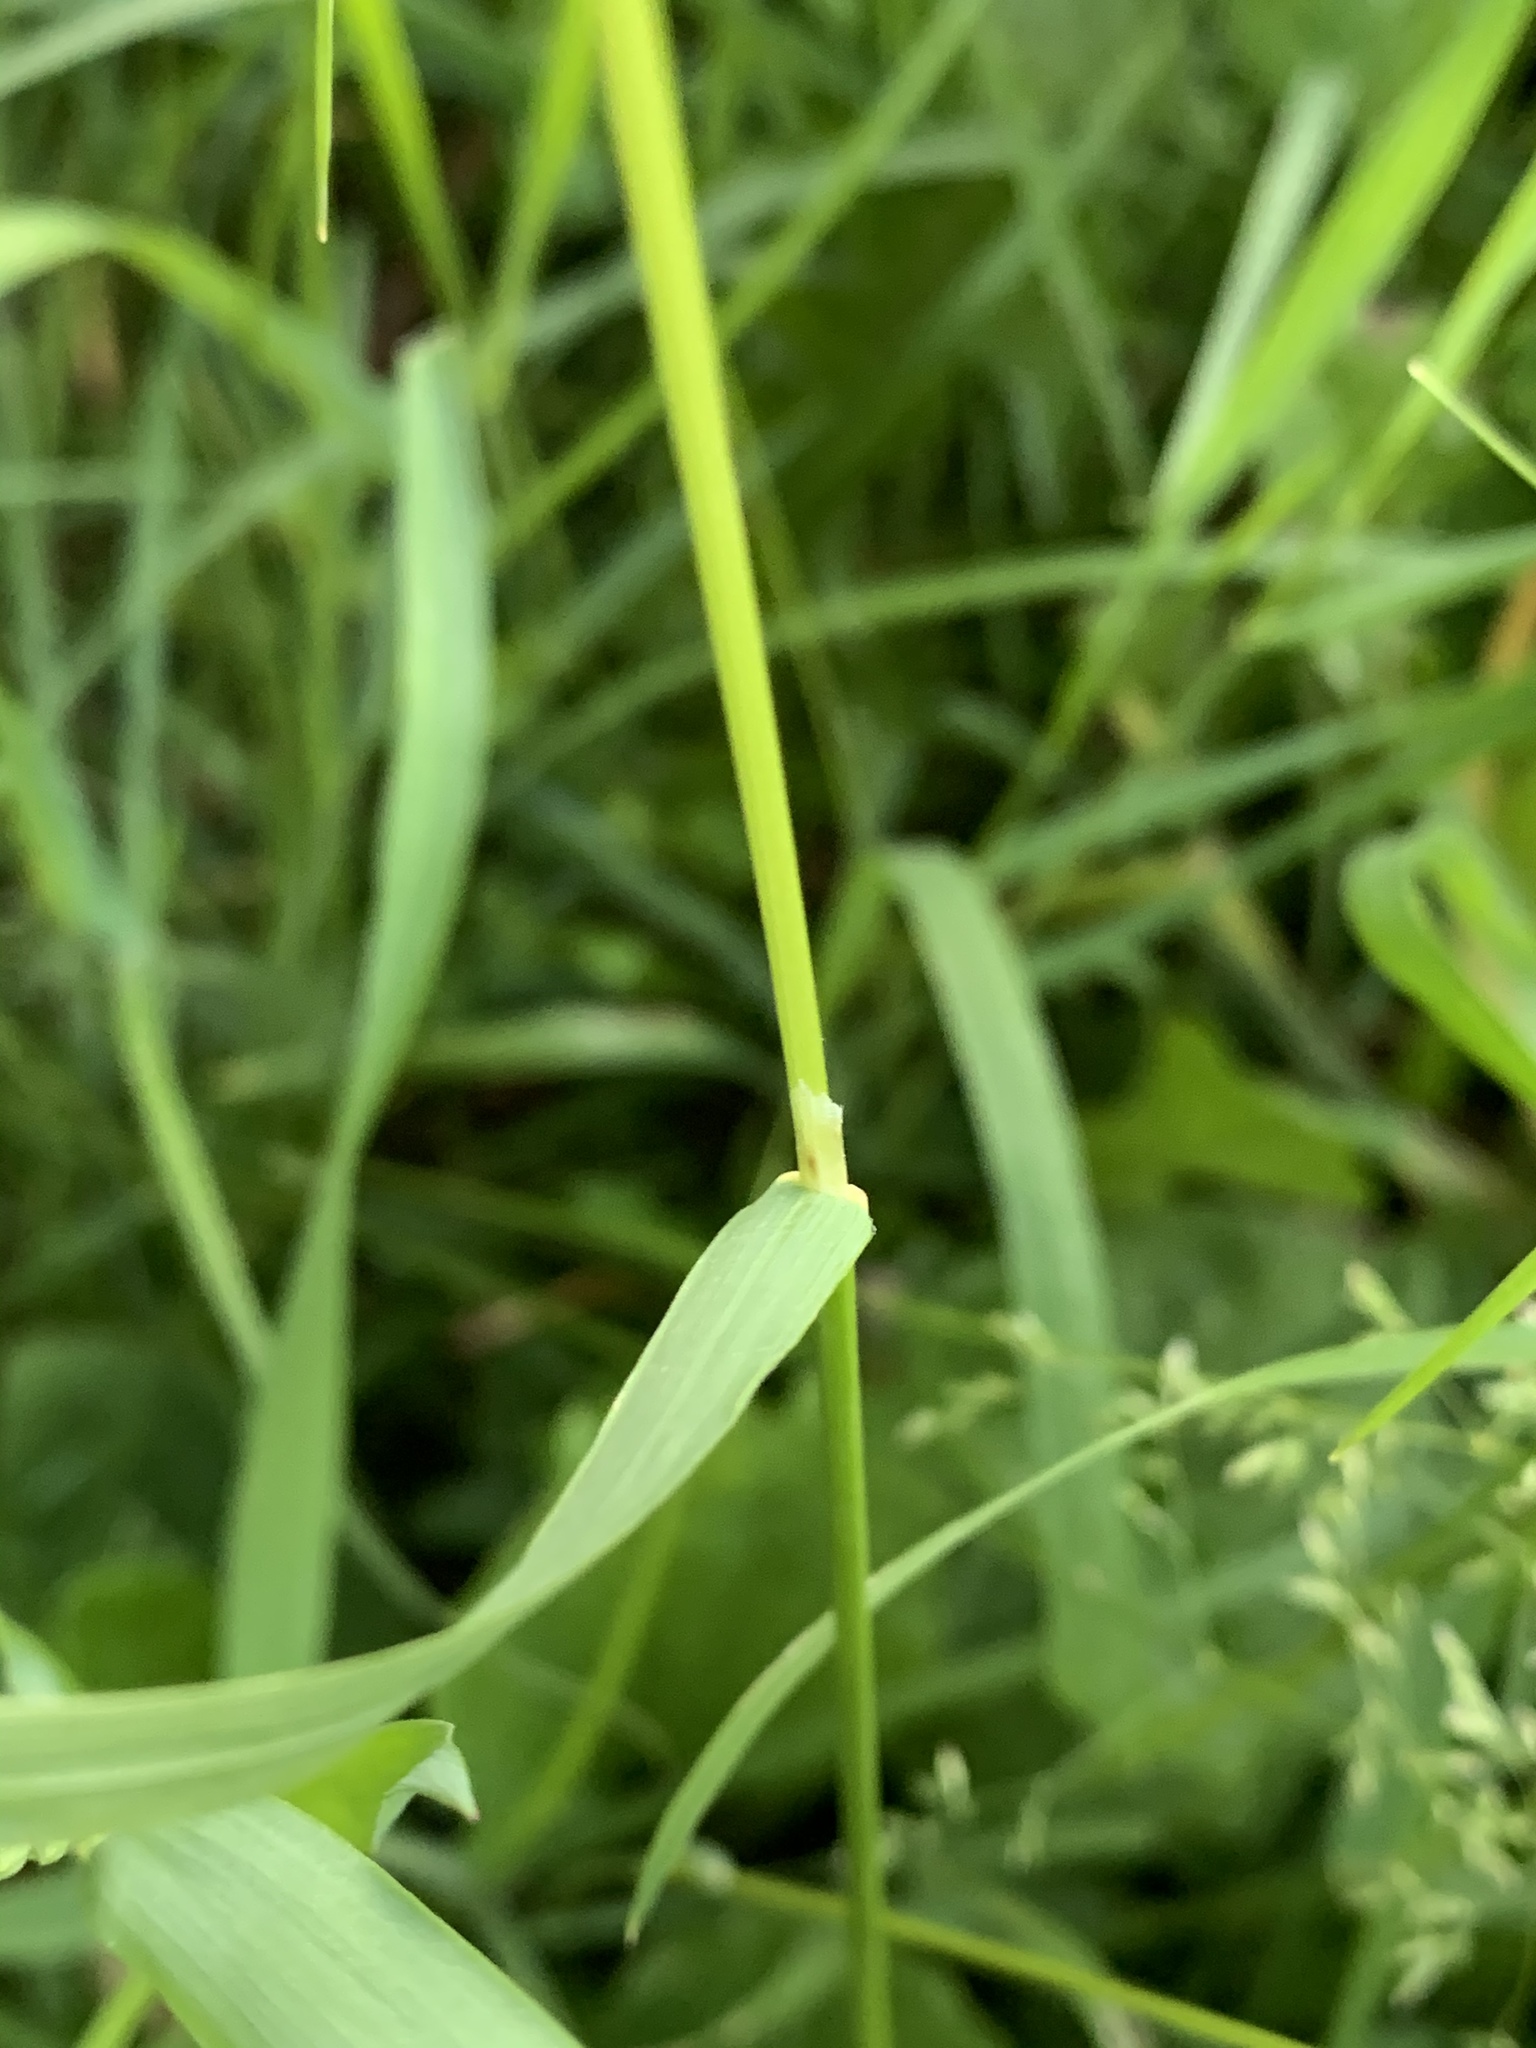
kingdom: Plantae
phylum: Tracheophyta
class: Liliopsida
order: Poales
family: Poaceae
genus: Poa
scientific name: Poa trivialis
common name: Rough bluegrass
